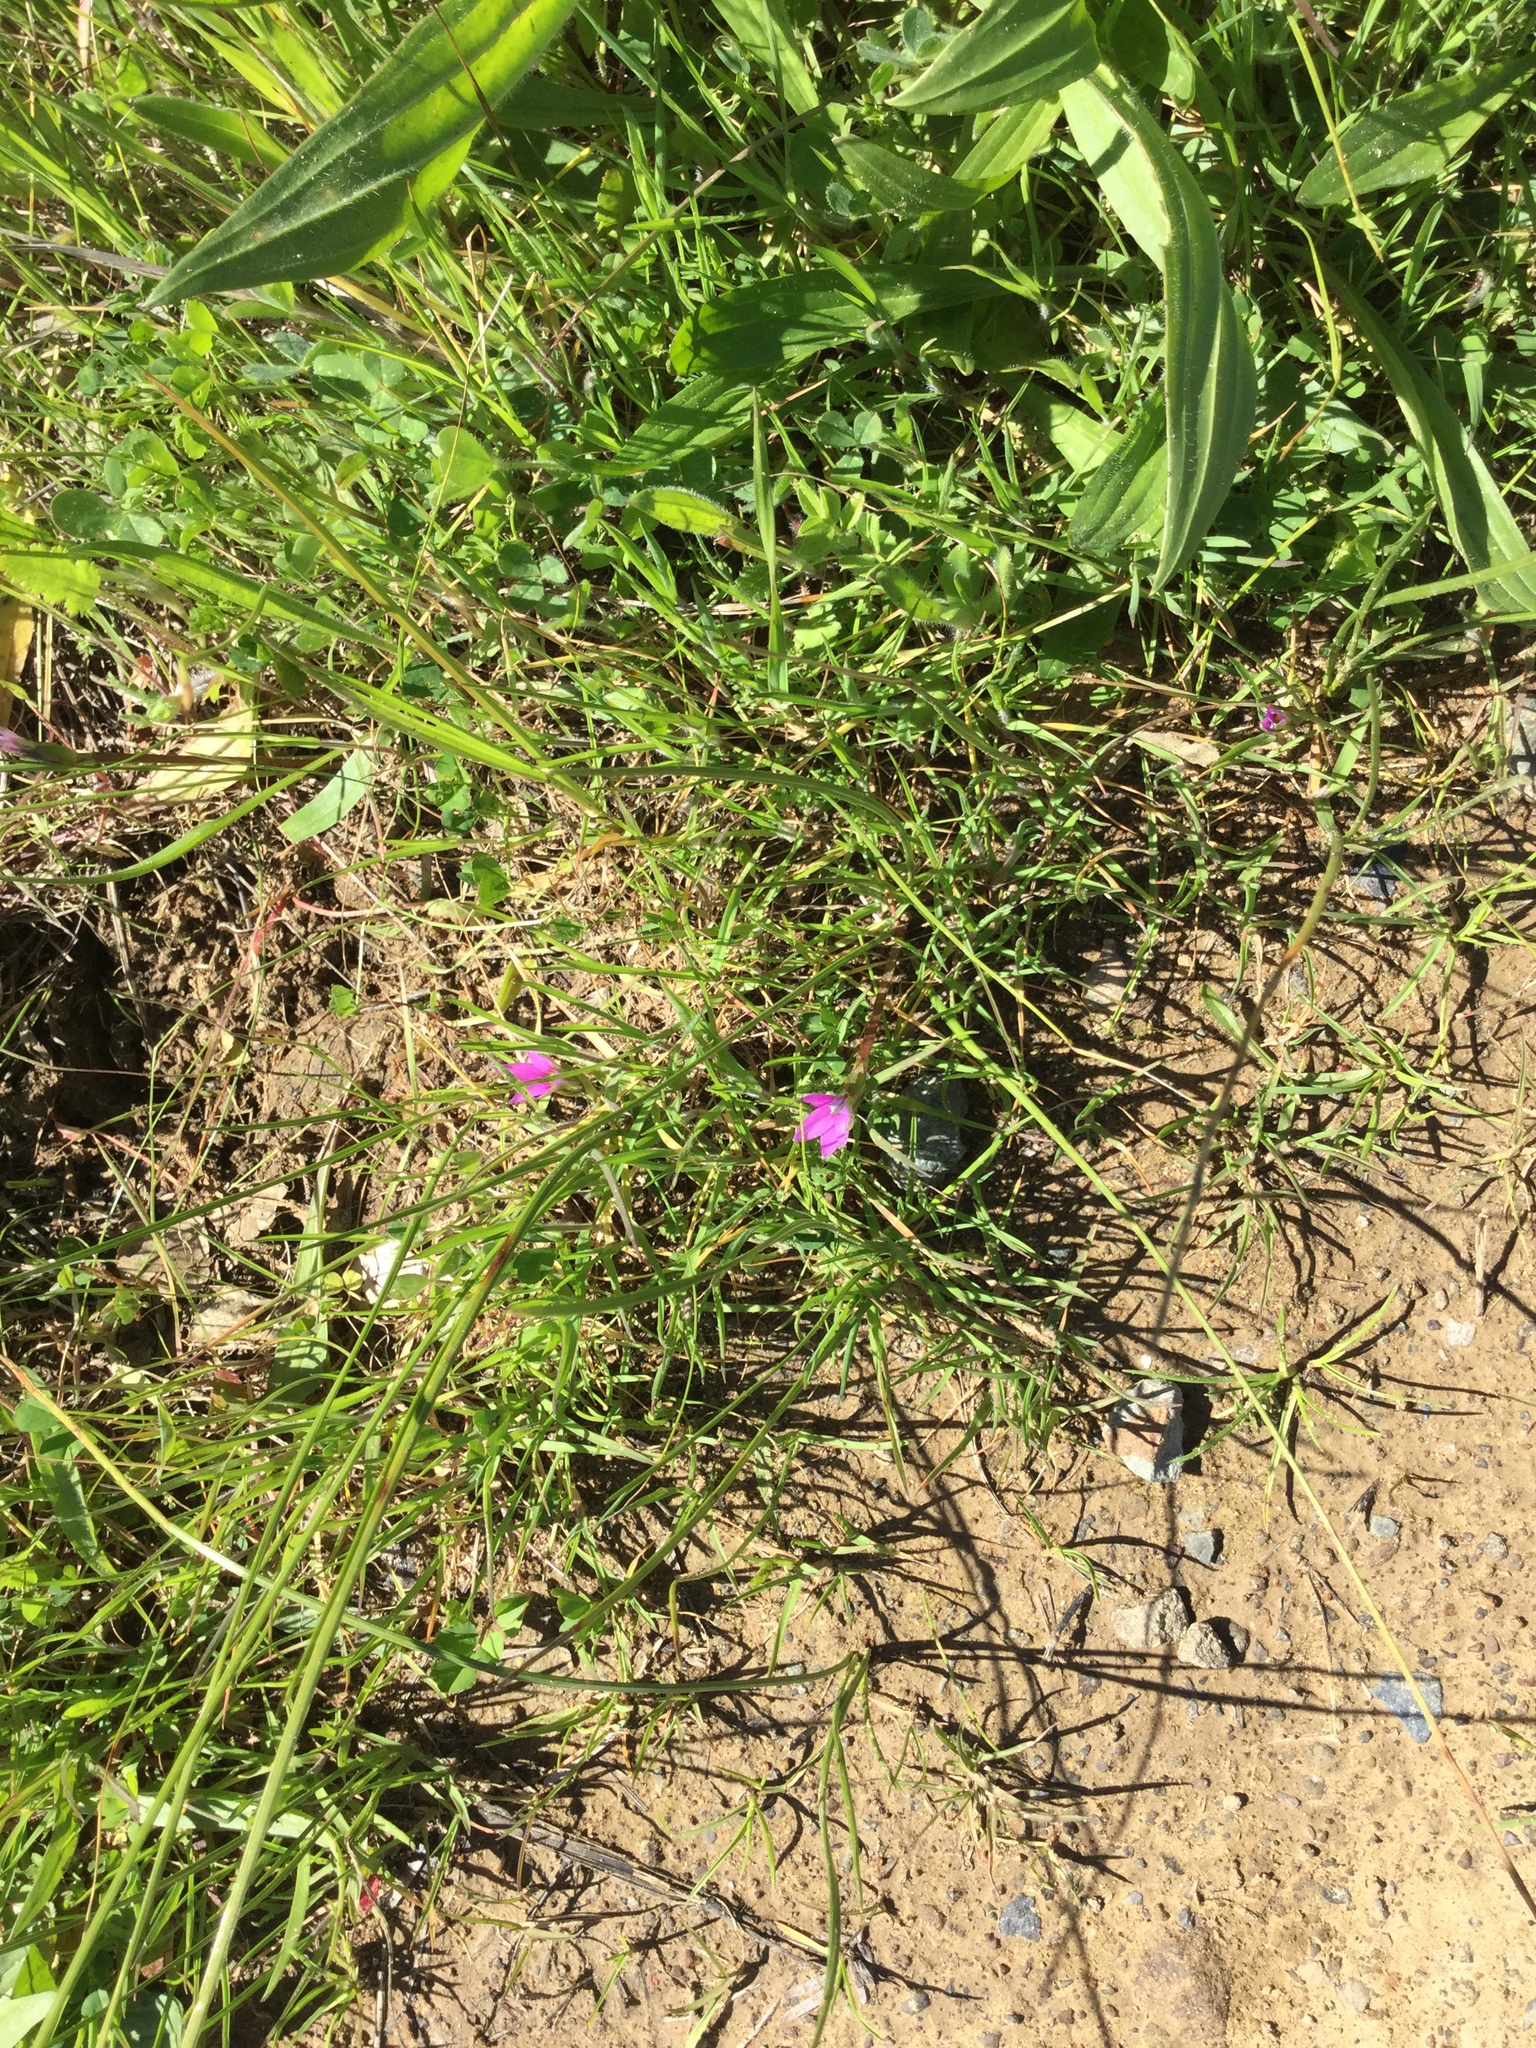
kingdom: Plantae
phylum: Tracheophyta
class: Liliopsida
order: Asparagales
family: Iridaceae
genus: Romulea
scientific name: Romulea rosea
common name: Oniongrass
